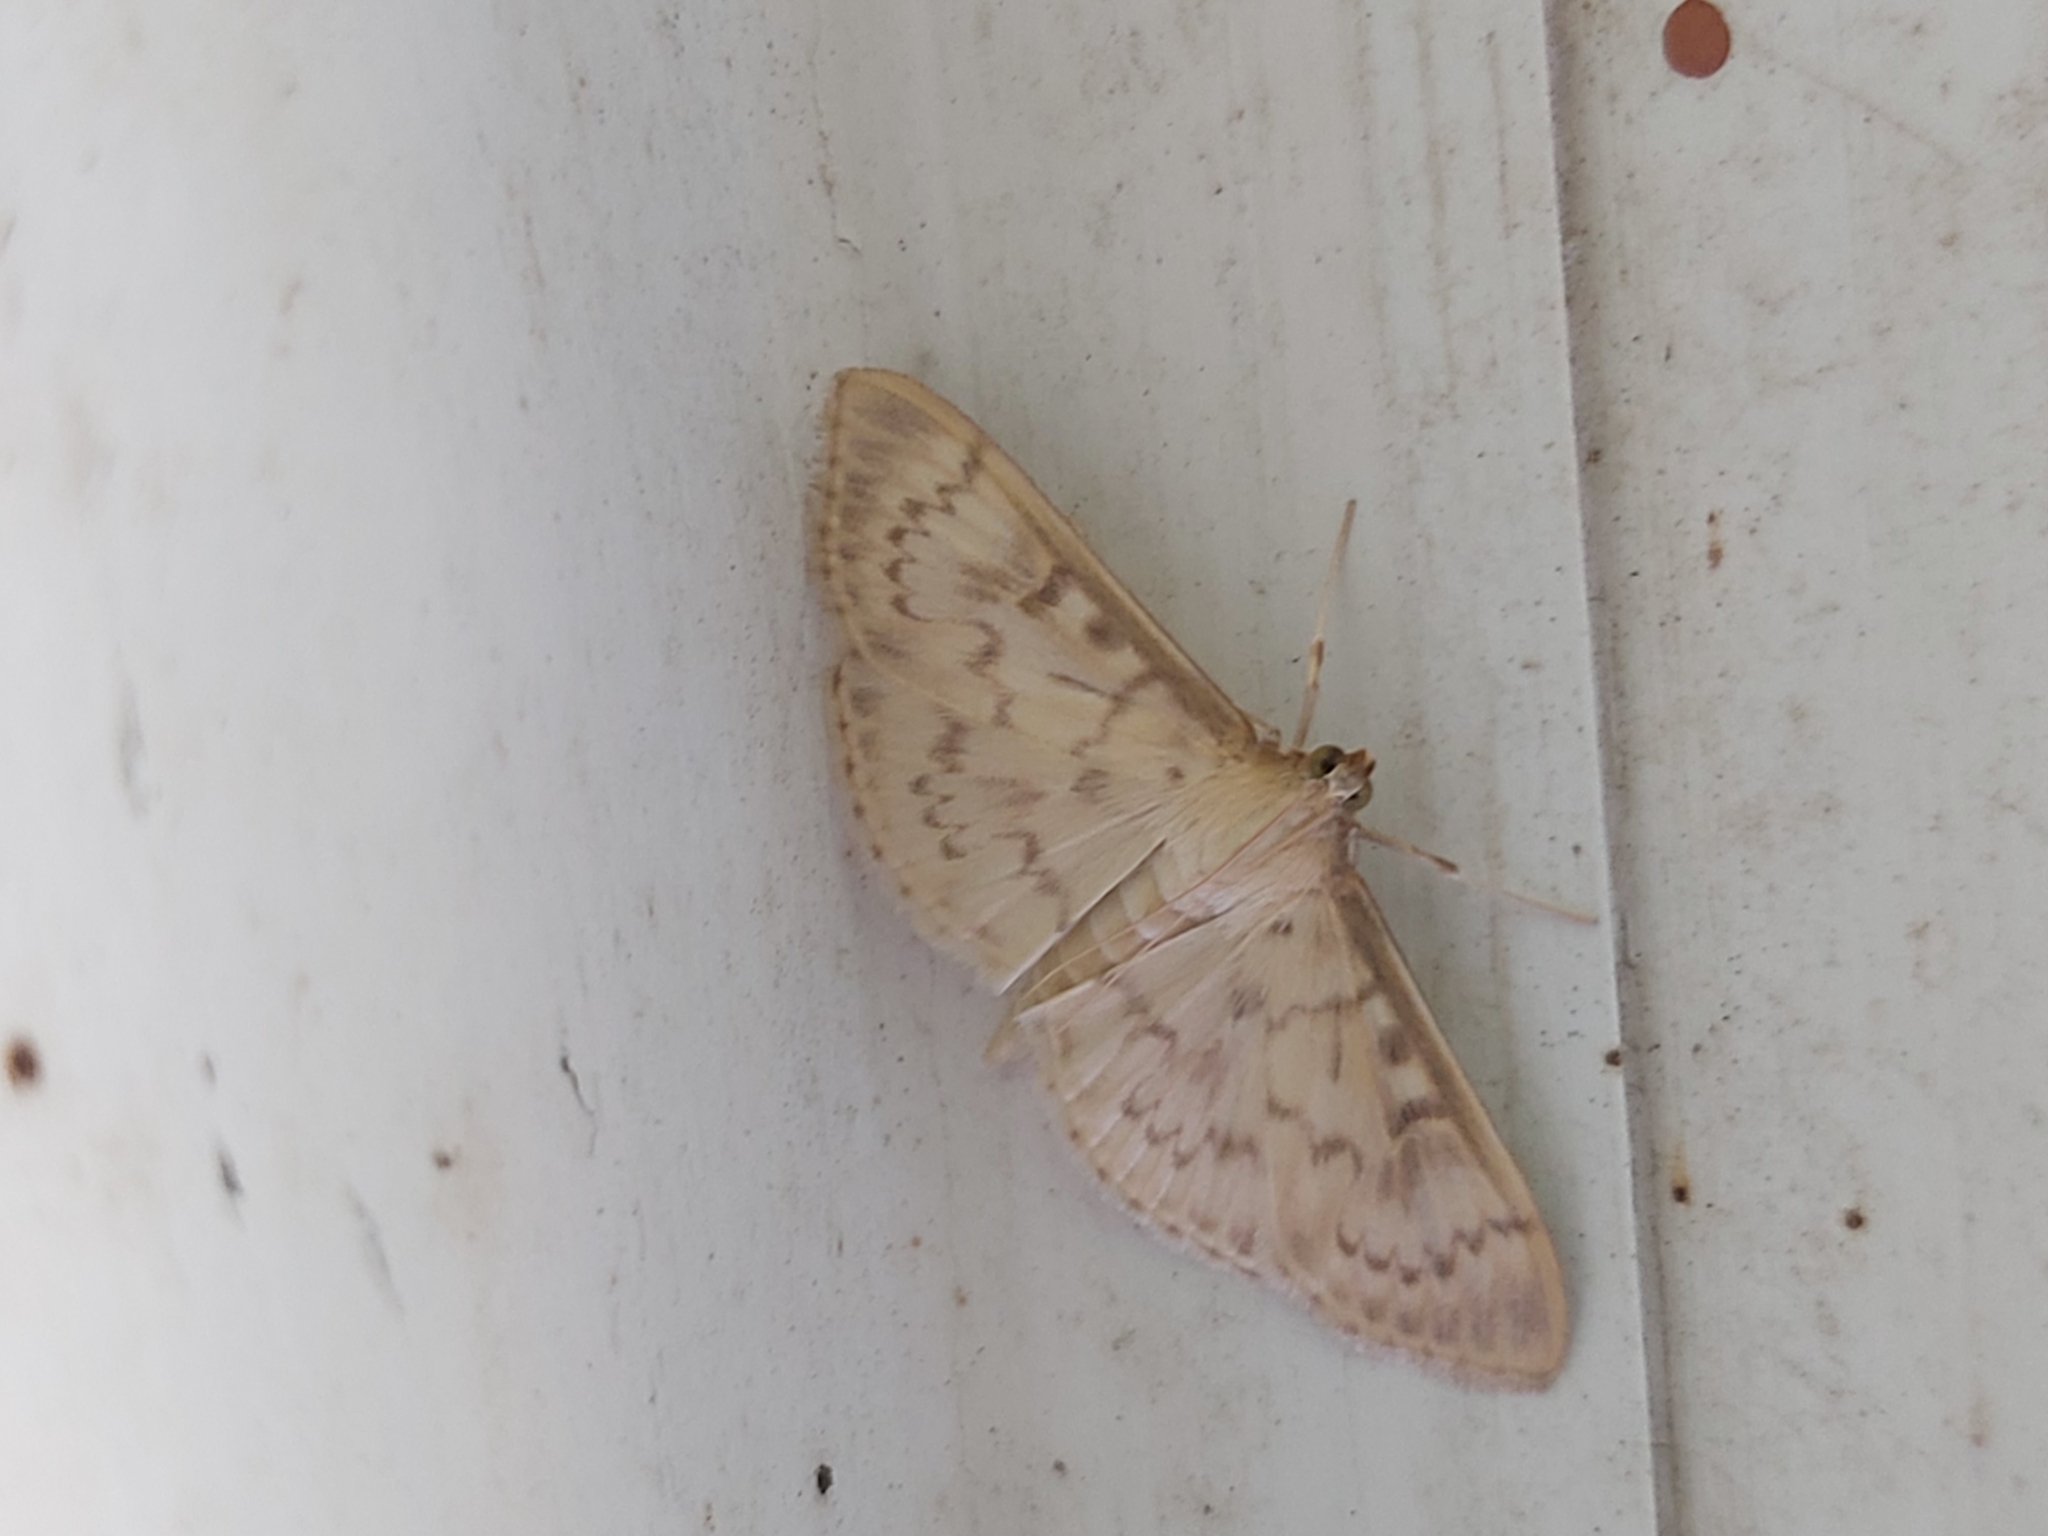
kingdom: Animalia
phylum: Arthropoda
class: Insecta
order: Lepidoptera
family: Crambidae
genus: Patania
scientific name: Patania ruralis
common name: Mother of pearl
